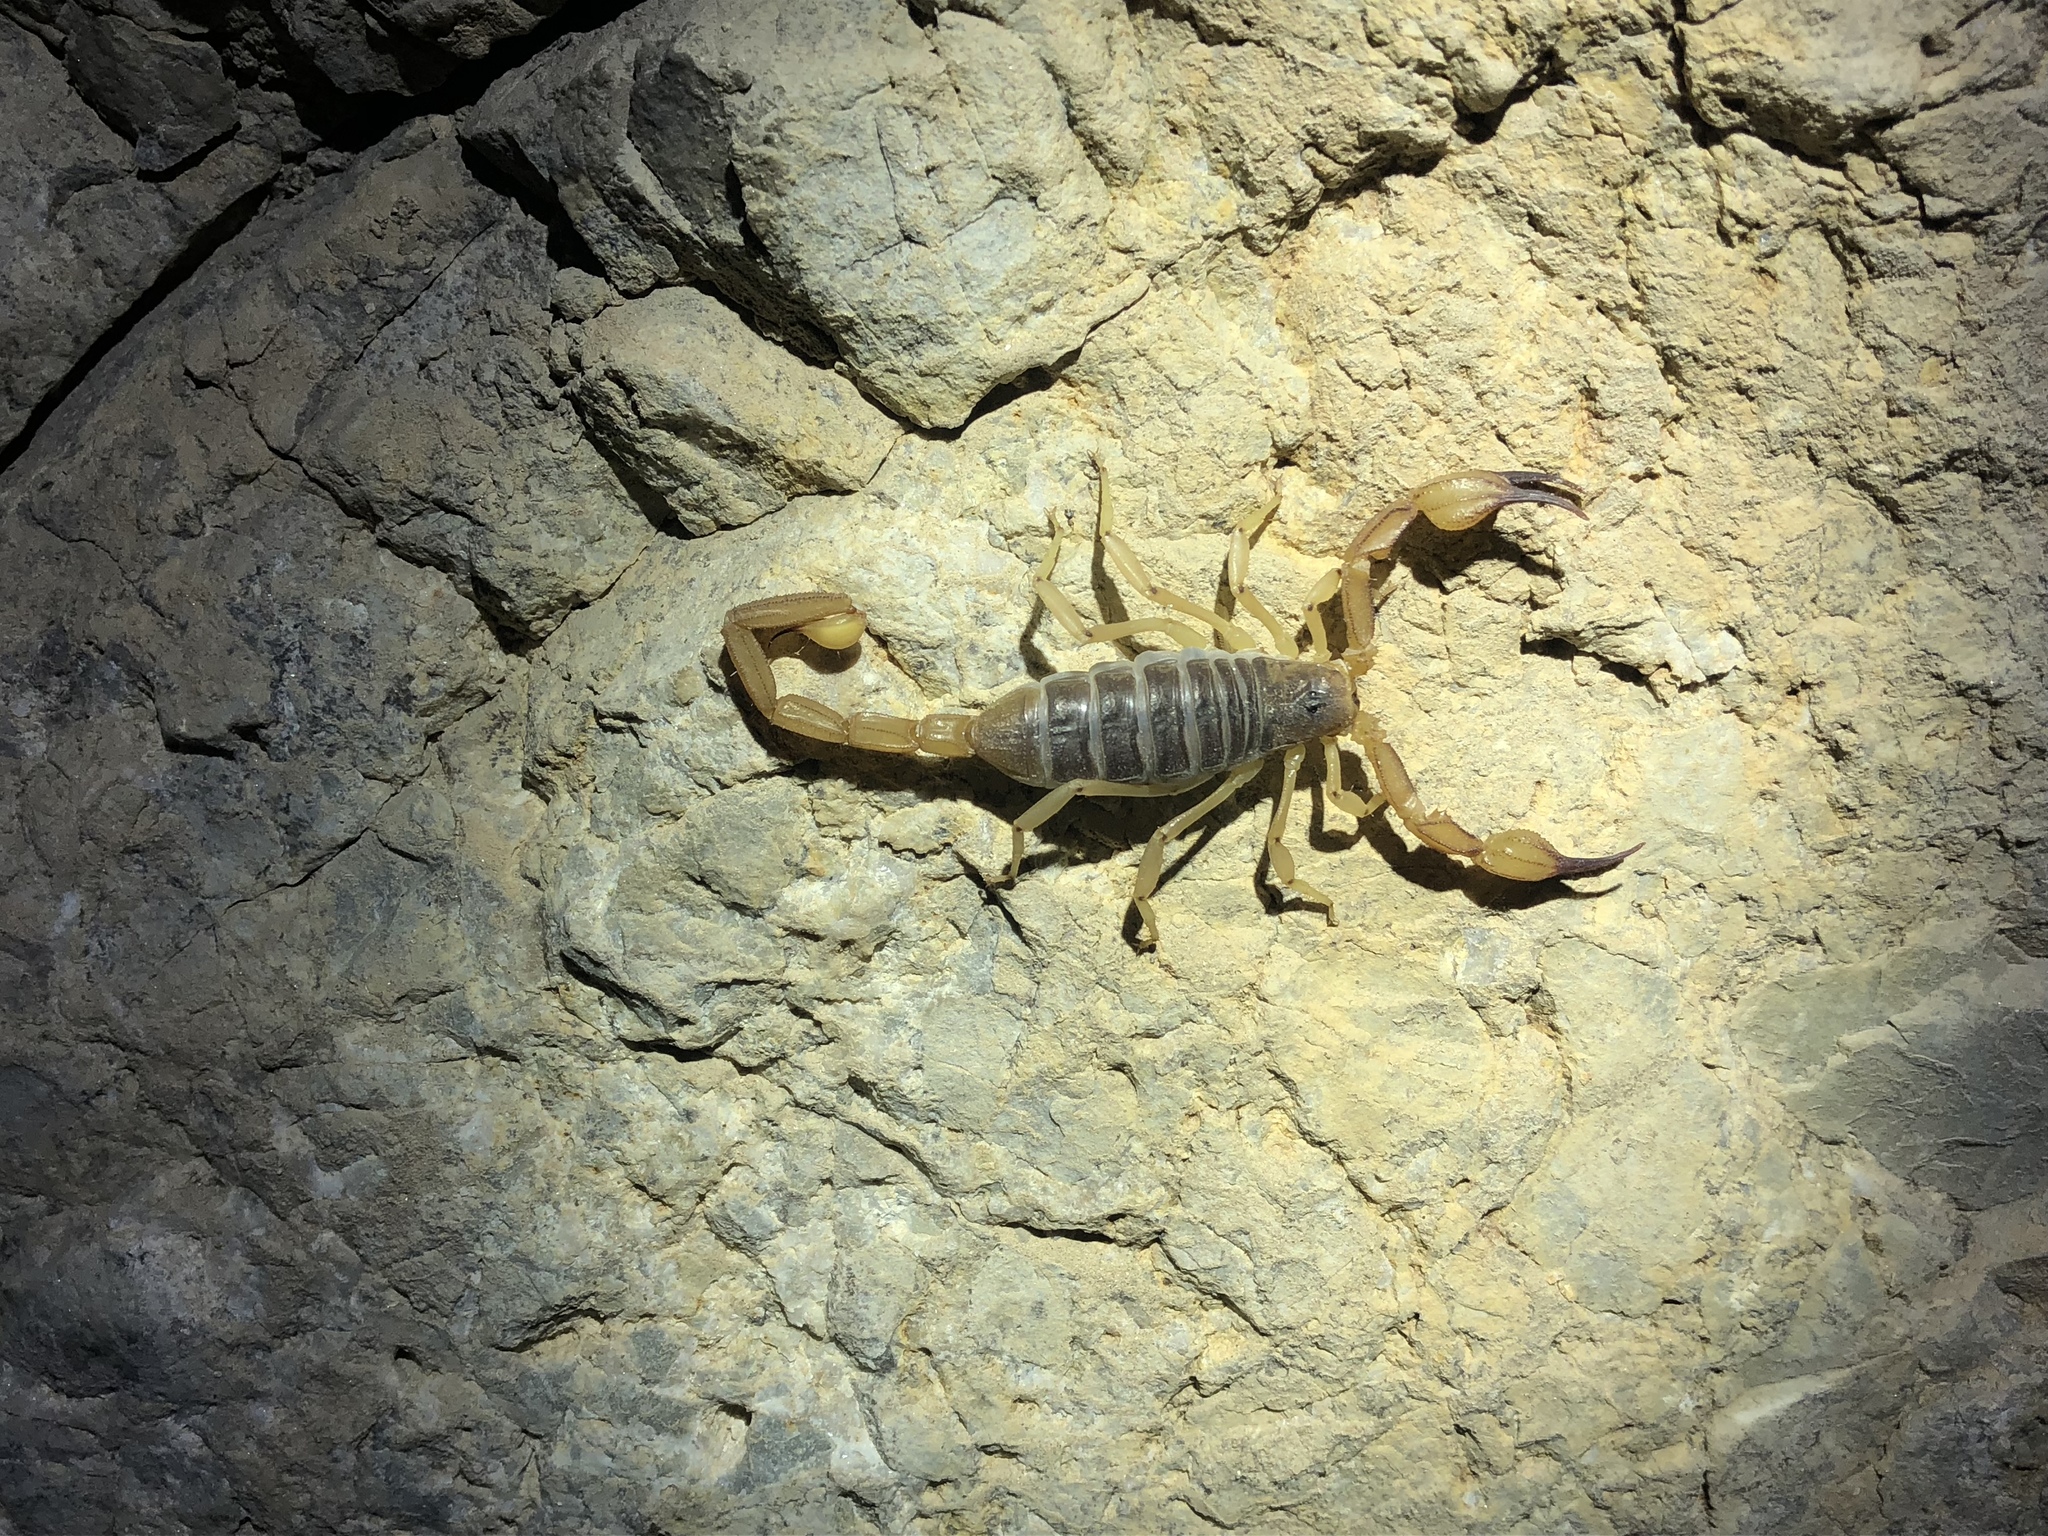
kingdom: Animalia
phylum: Arthropoda
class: Arachnida
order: Scorpiones
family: Vaejovidae
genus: Smeringurus
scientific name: Smeringurus vachoni
